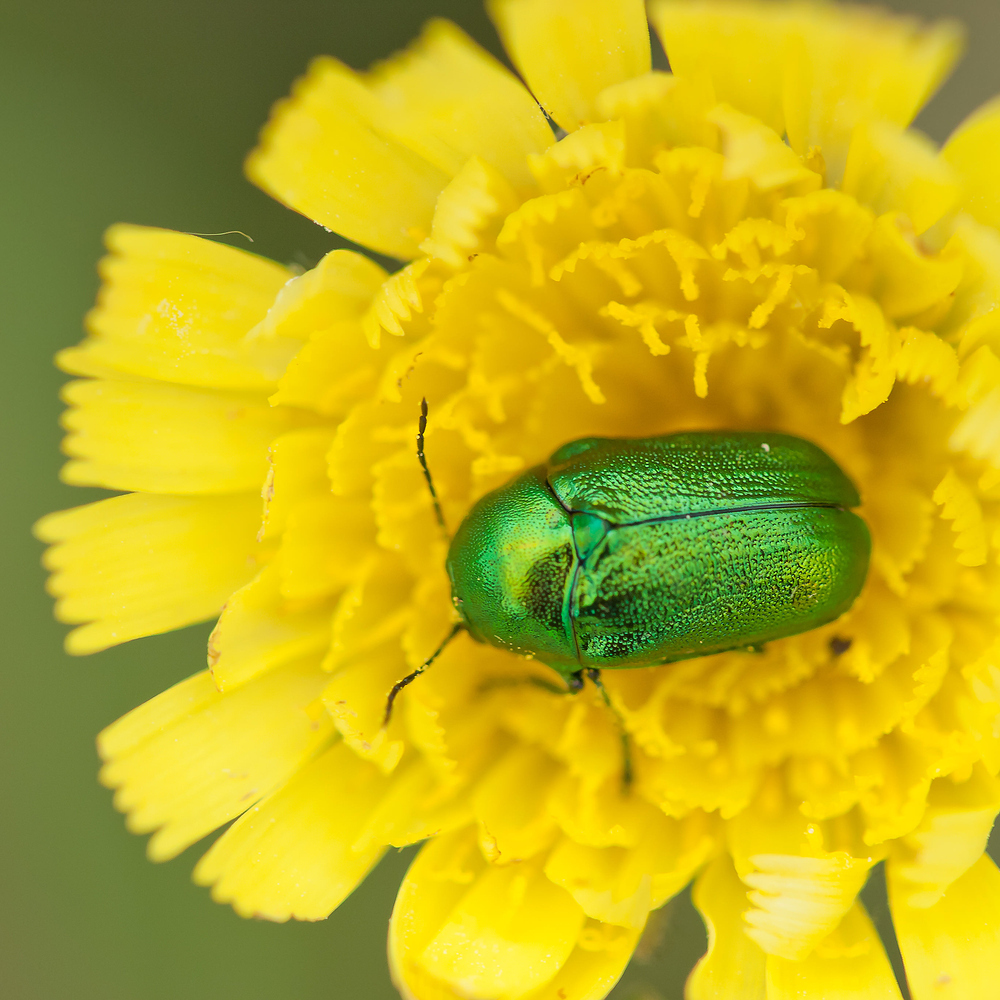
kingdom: Animalia
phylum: Arthropoda
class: Insecta
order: Coleoptera
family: Chrysomelidae
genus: Cryptocephalus
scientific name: Cryptocephalus sericeus
